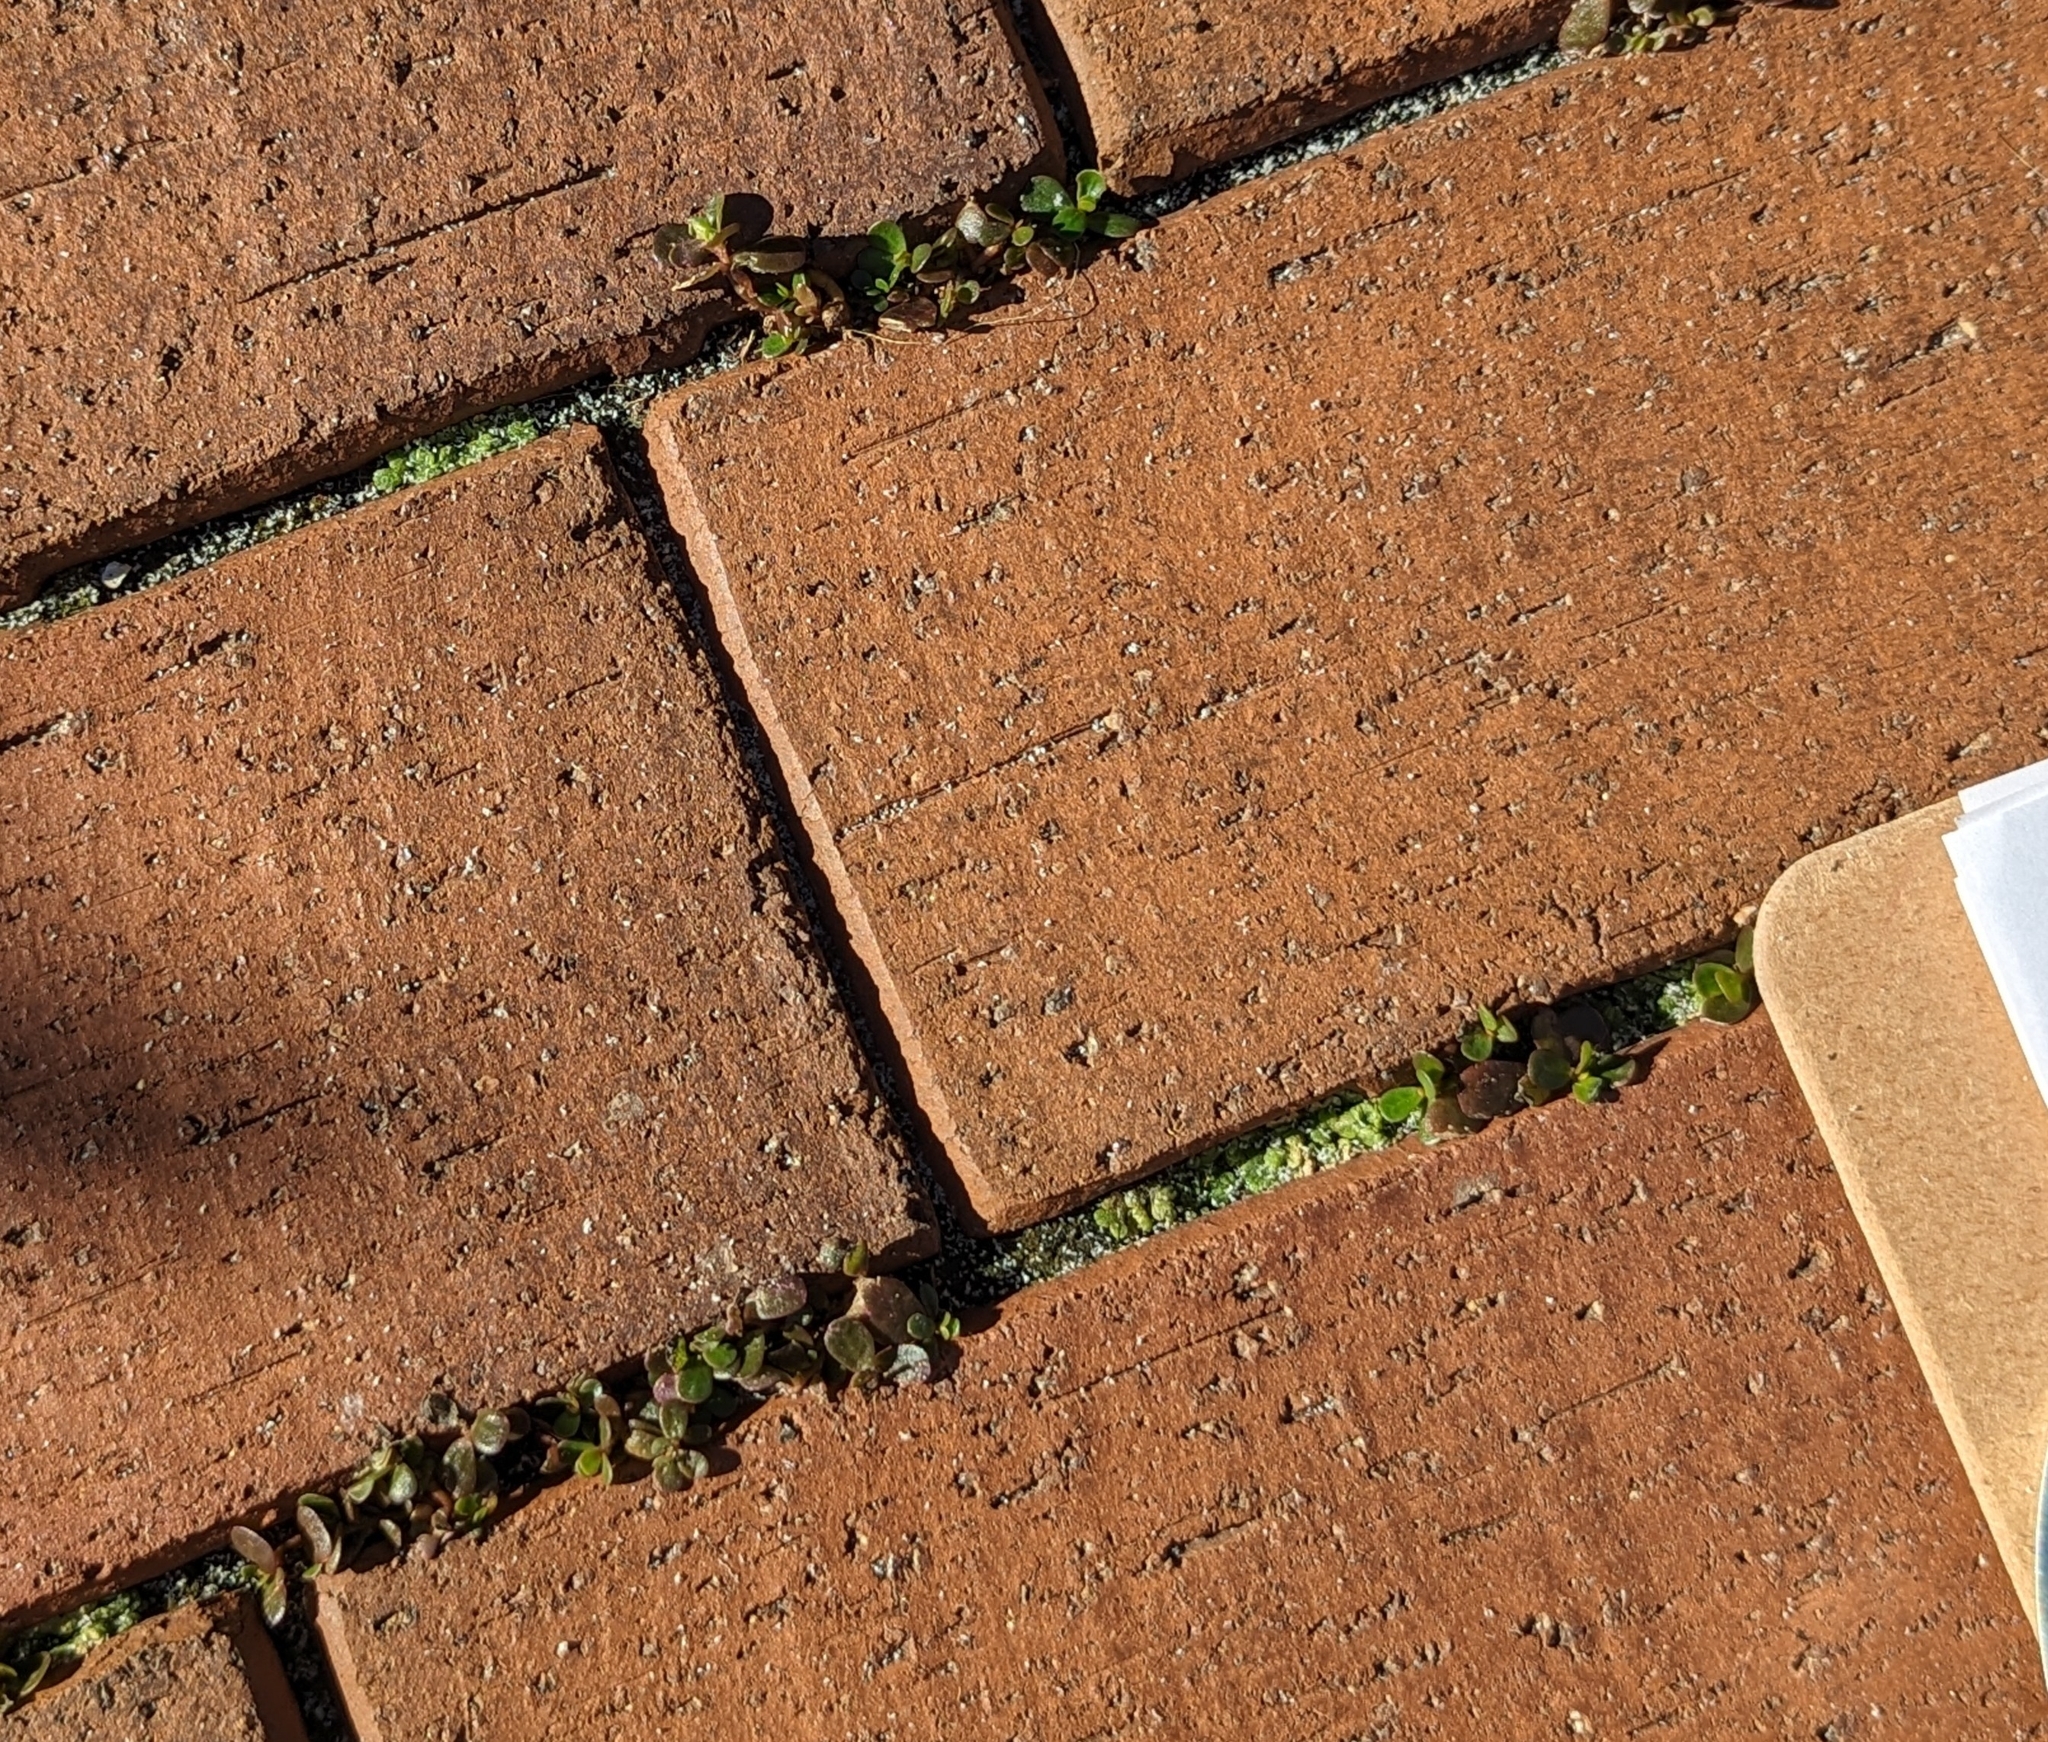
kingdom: Plantae
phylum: Marchantiophyta
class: Marchantiopsida
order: Marchantiales
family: Ricciaceae
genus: Riccia
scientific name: Riccia cavernosa
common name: Cavernous crystalwort
